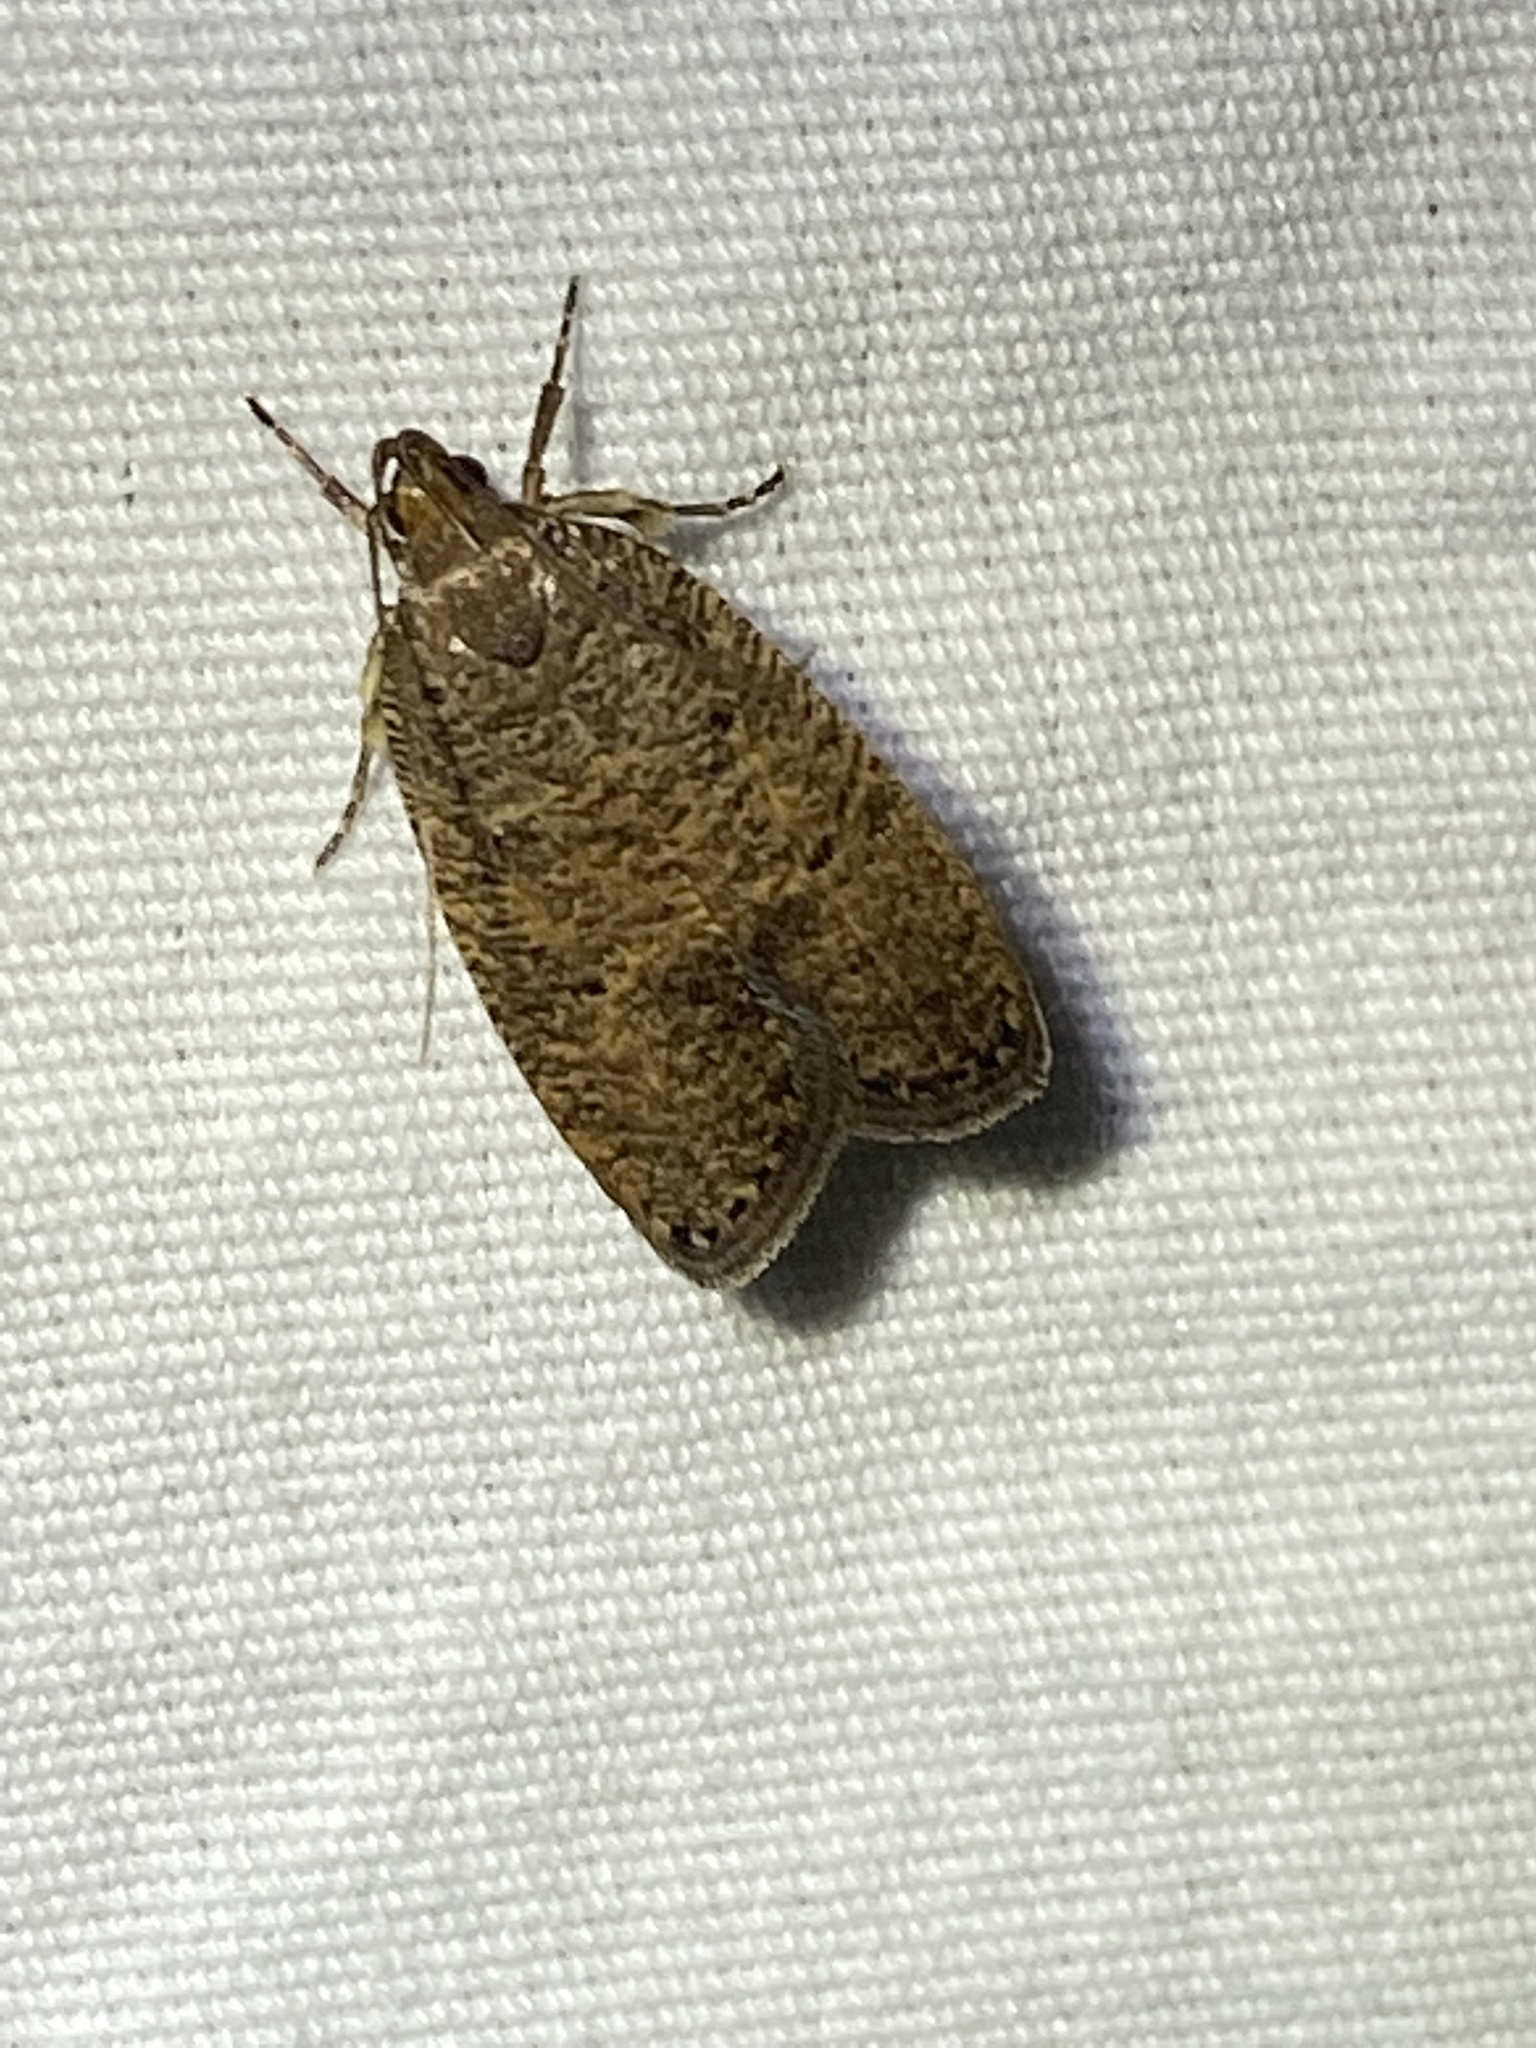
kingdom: Animalia
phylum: Arthropoda
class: Insecta
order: Lepidoptera
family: Depressariidae
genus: Psilocorsis
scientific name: Psilocorsis reflexella
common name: Dotted leaftier moth
